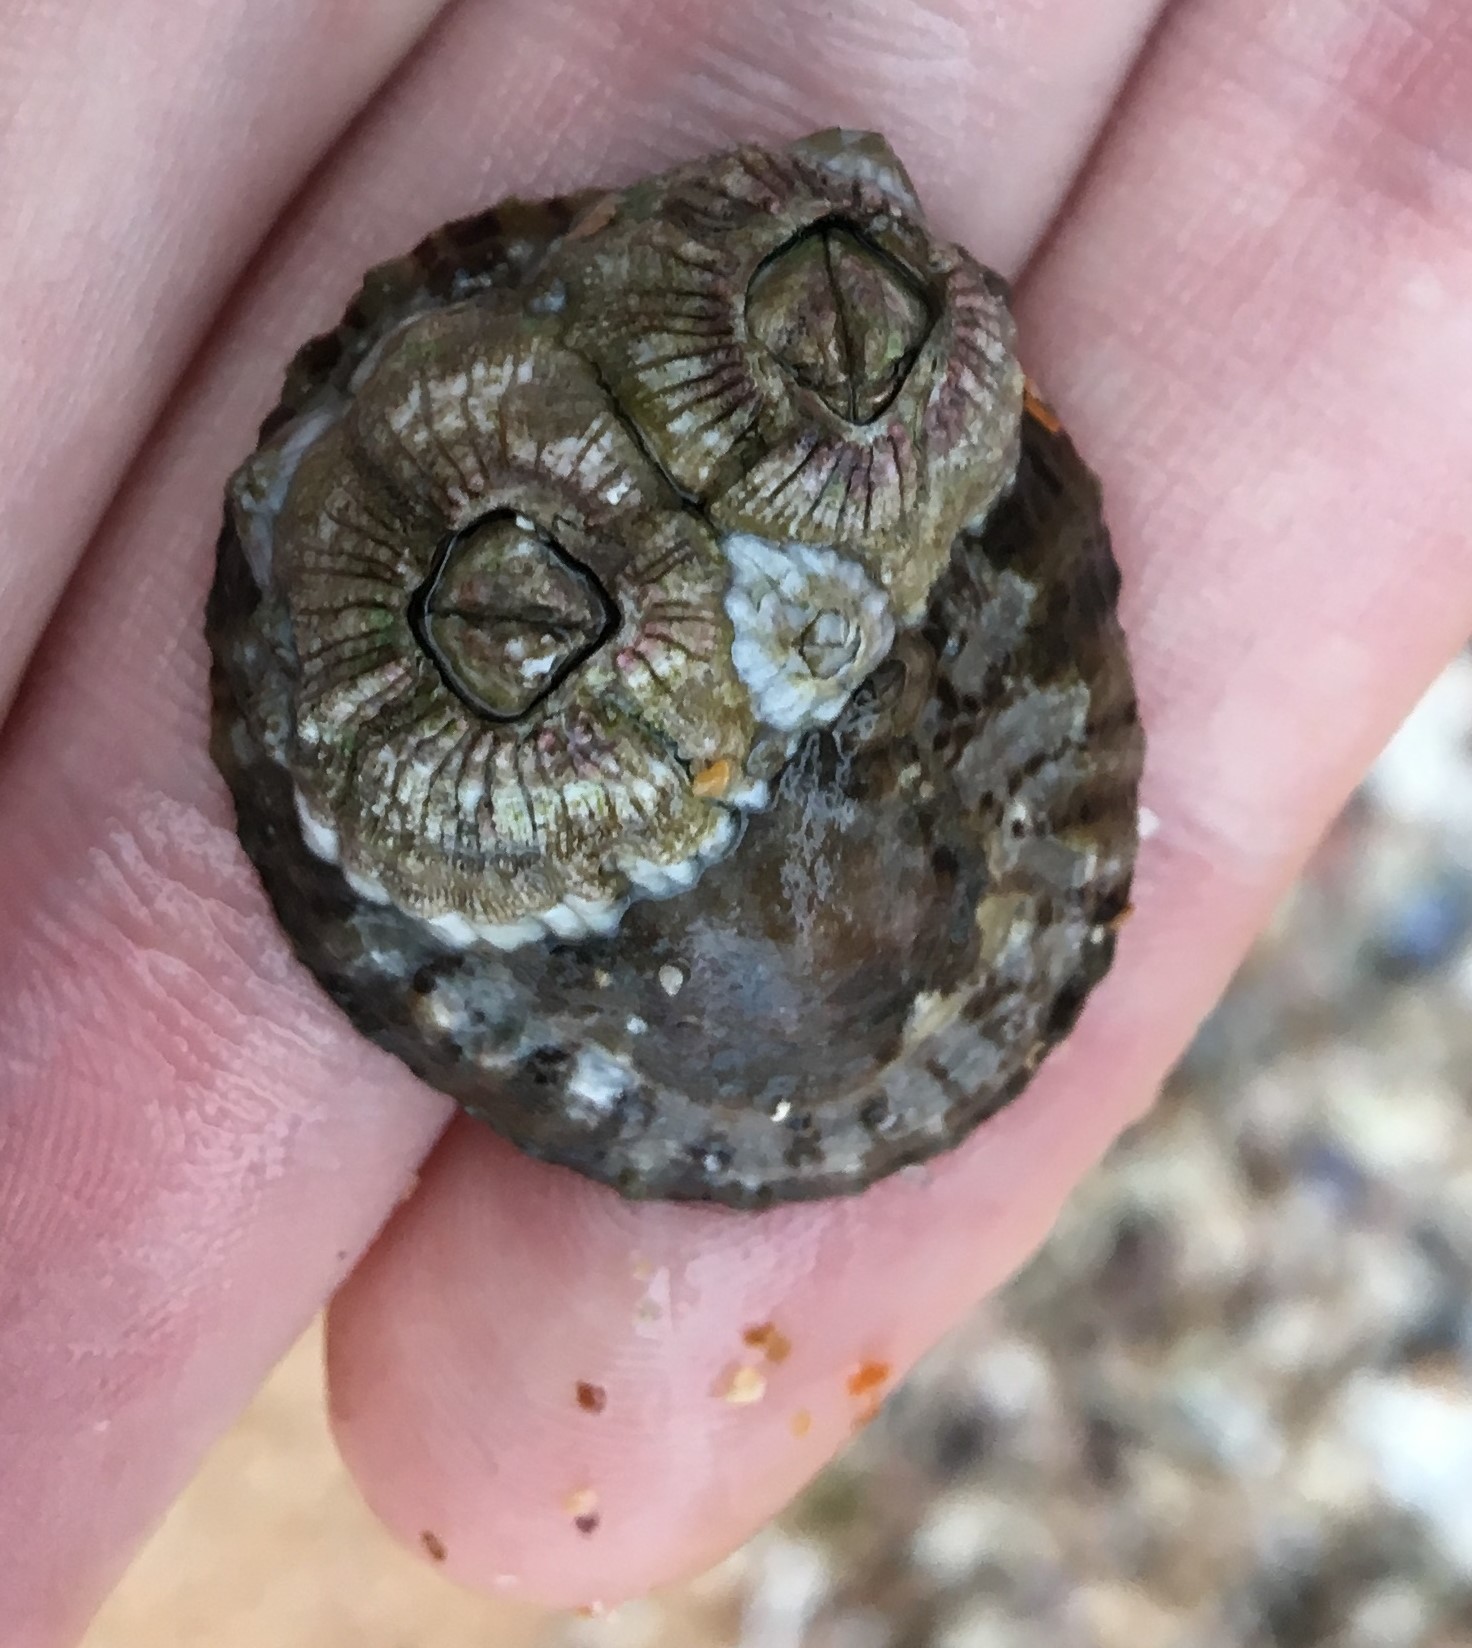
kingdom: Animalia
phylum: Arthropoda
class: Maxillopoda
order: Sessilia
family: Tetraclitidae
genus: Tesseropora
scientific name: Tesseropora rosea
